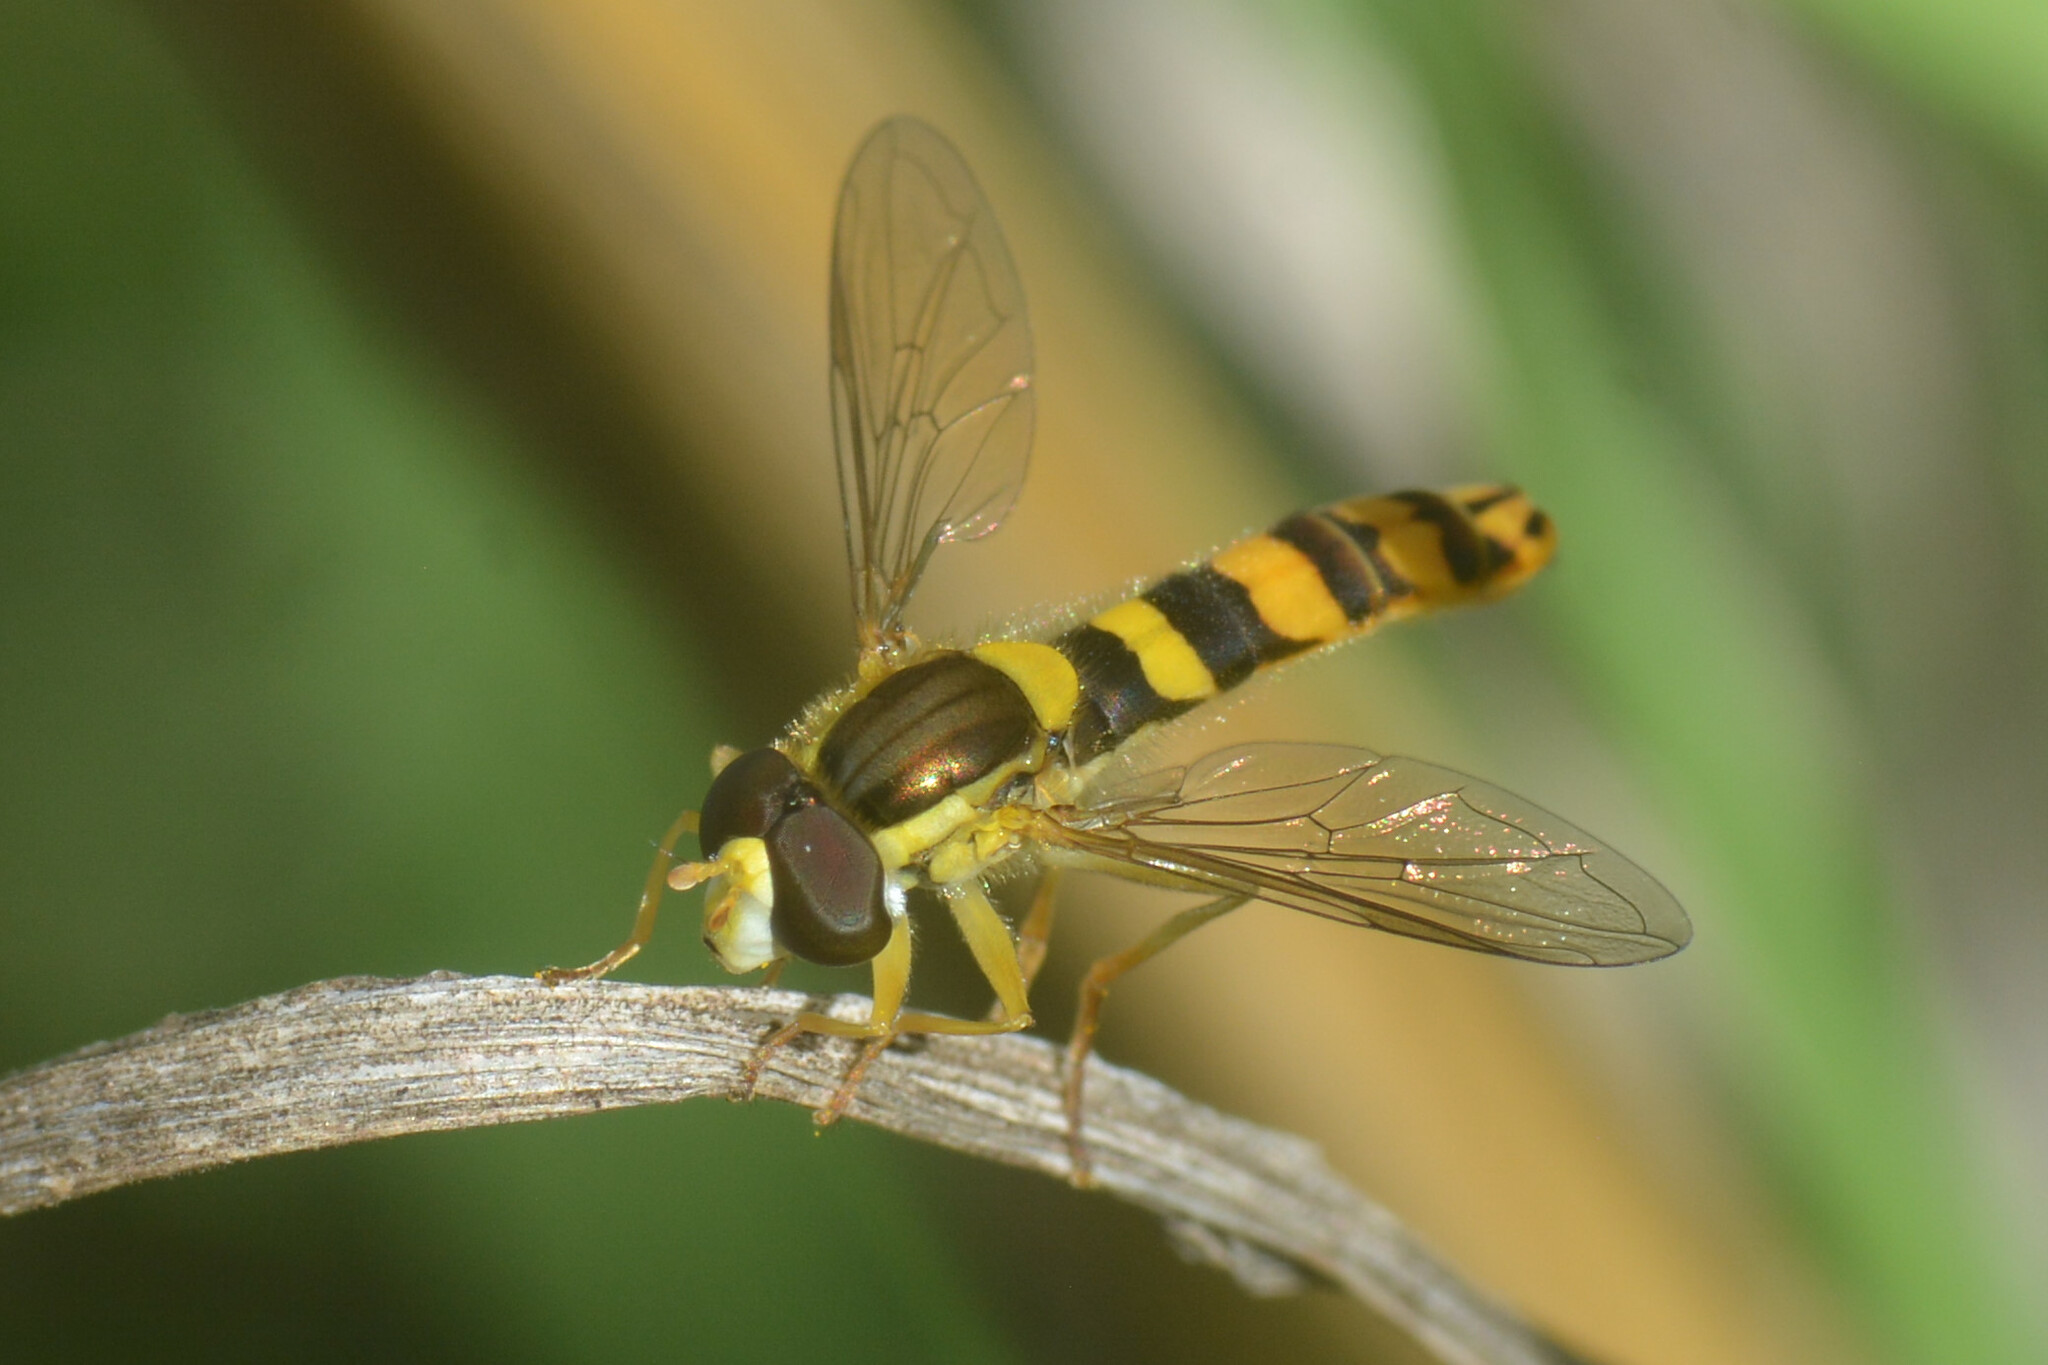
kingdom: Animalia
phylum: Arthropoda
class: Insecta
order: Diptera
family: Syrphidae
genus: Sphaerophoria
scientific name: Sphaerophoria scripta
